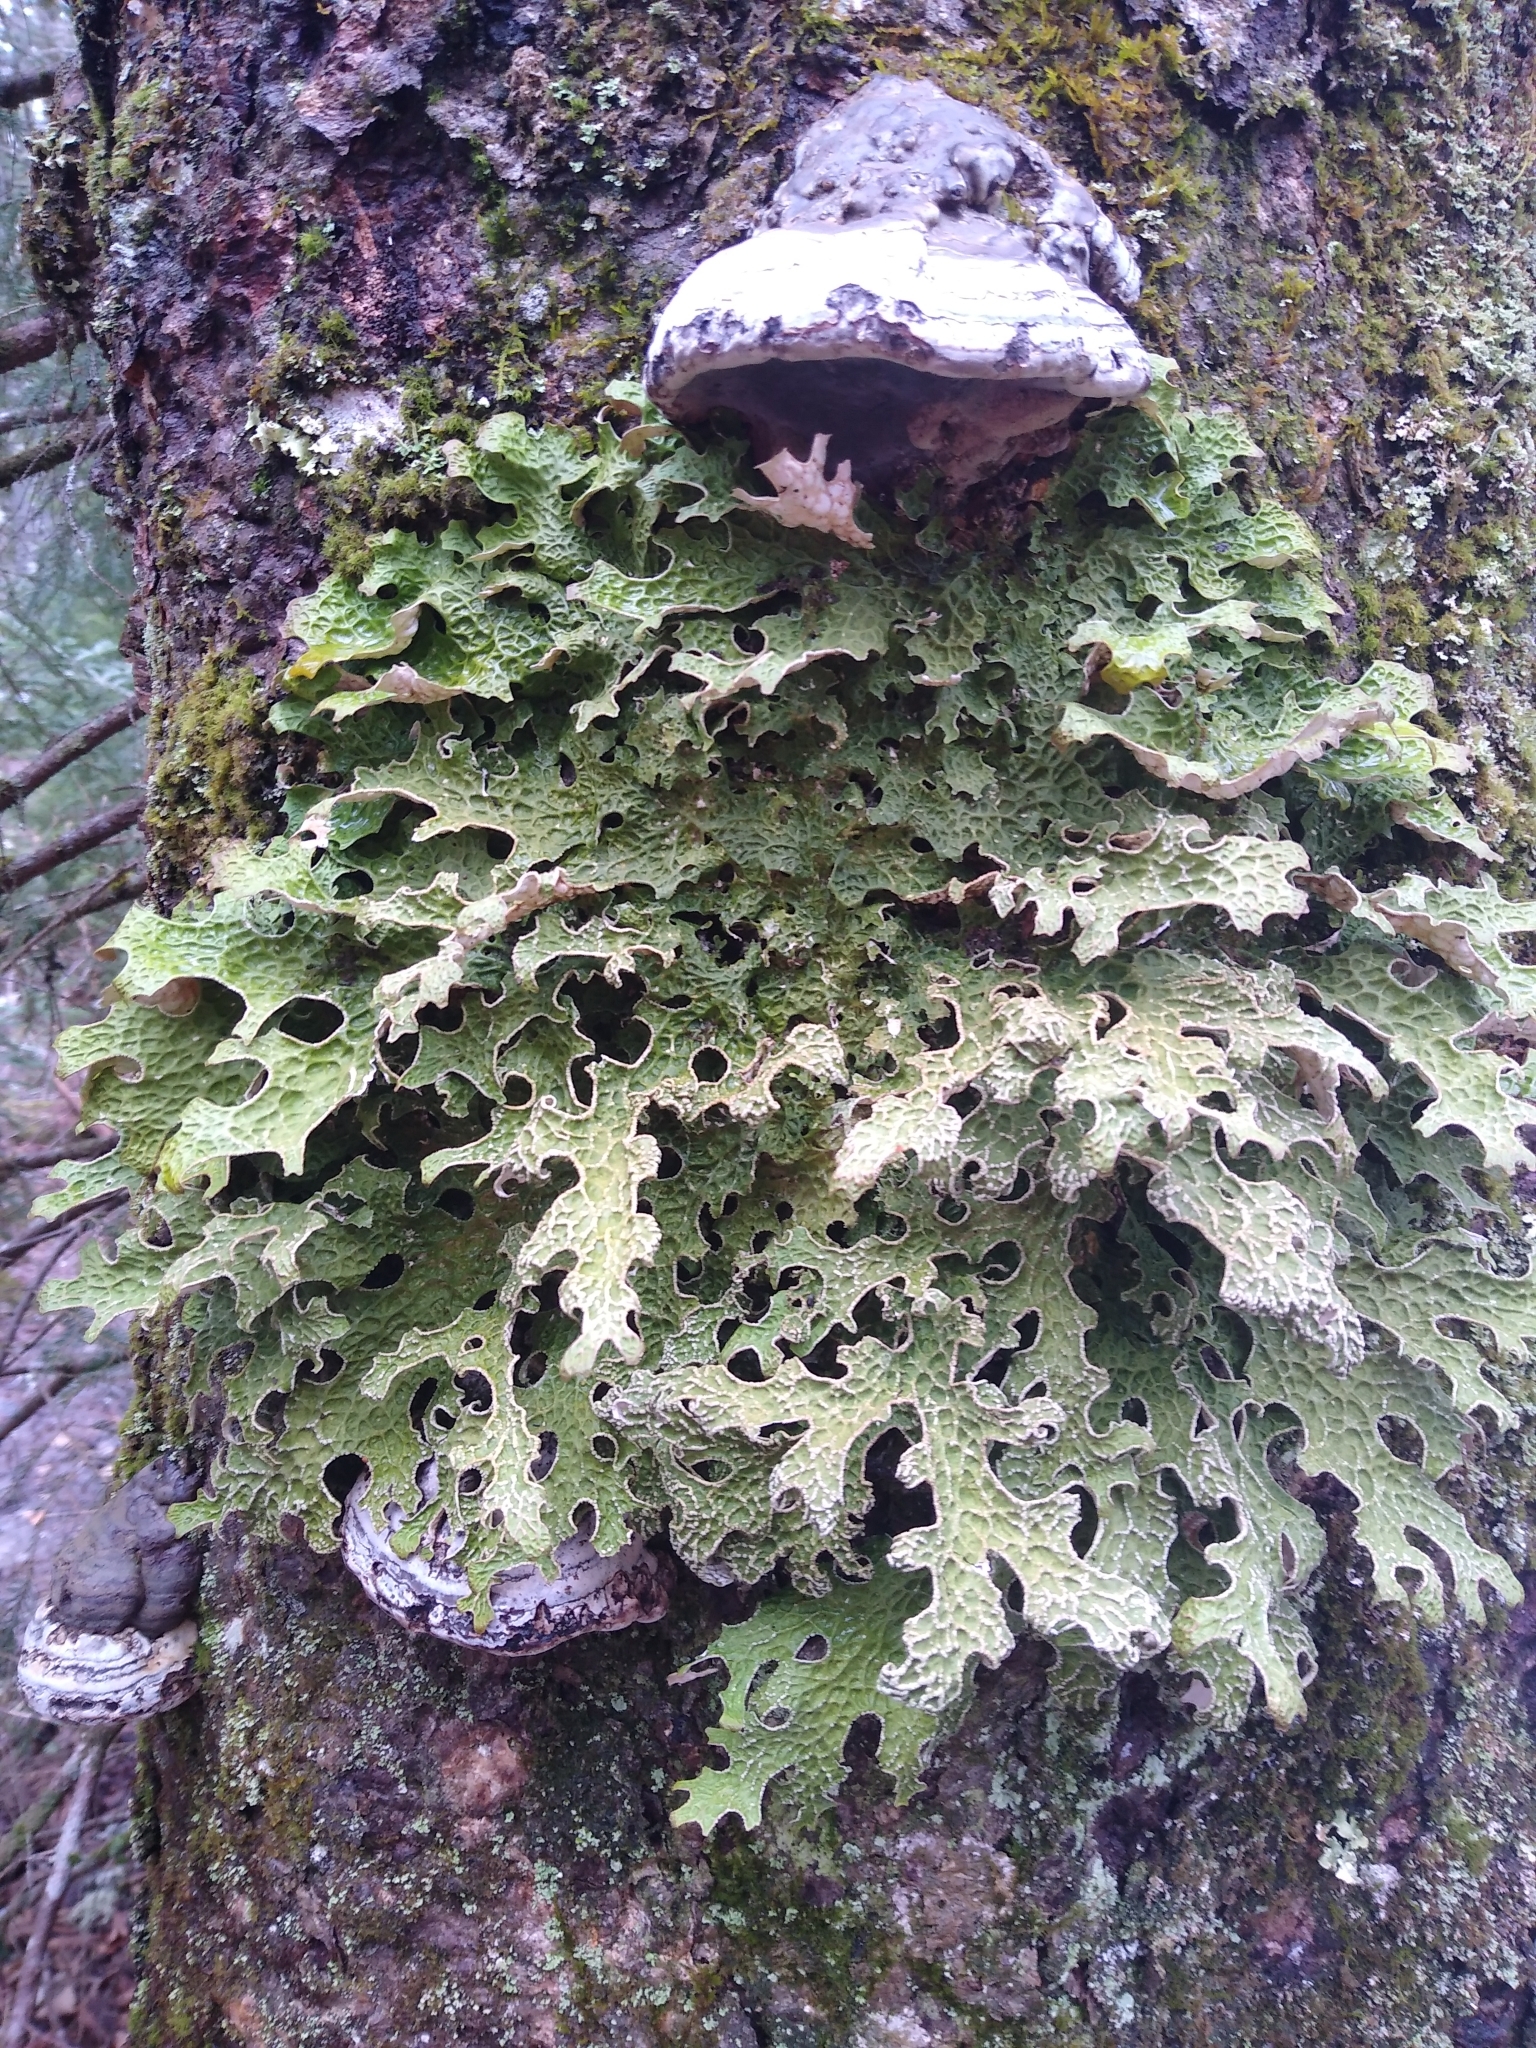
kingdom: Fungi
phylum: Ascomycota
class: Lecanoromycetes
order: Peltigerales
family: Lobariaceae
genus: Lobaria
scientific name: Lobaria pulmonaria
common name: Lungwort
